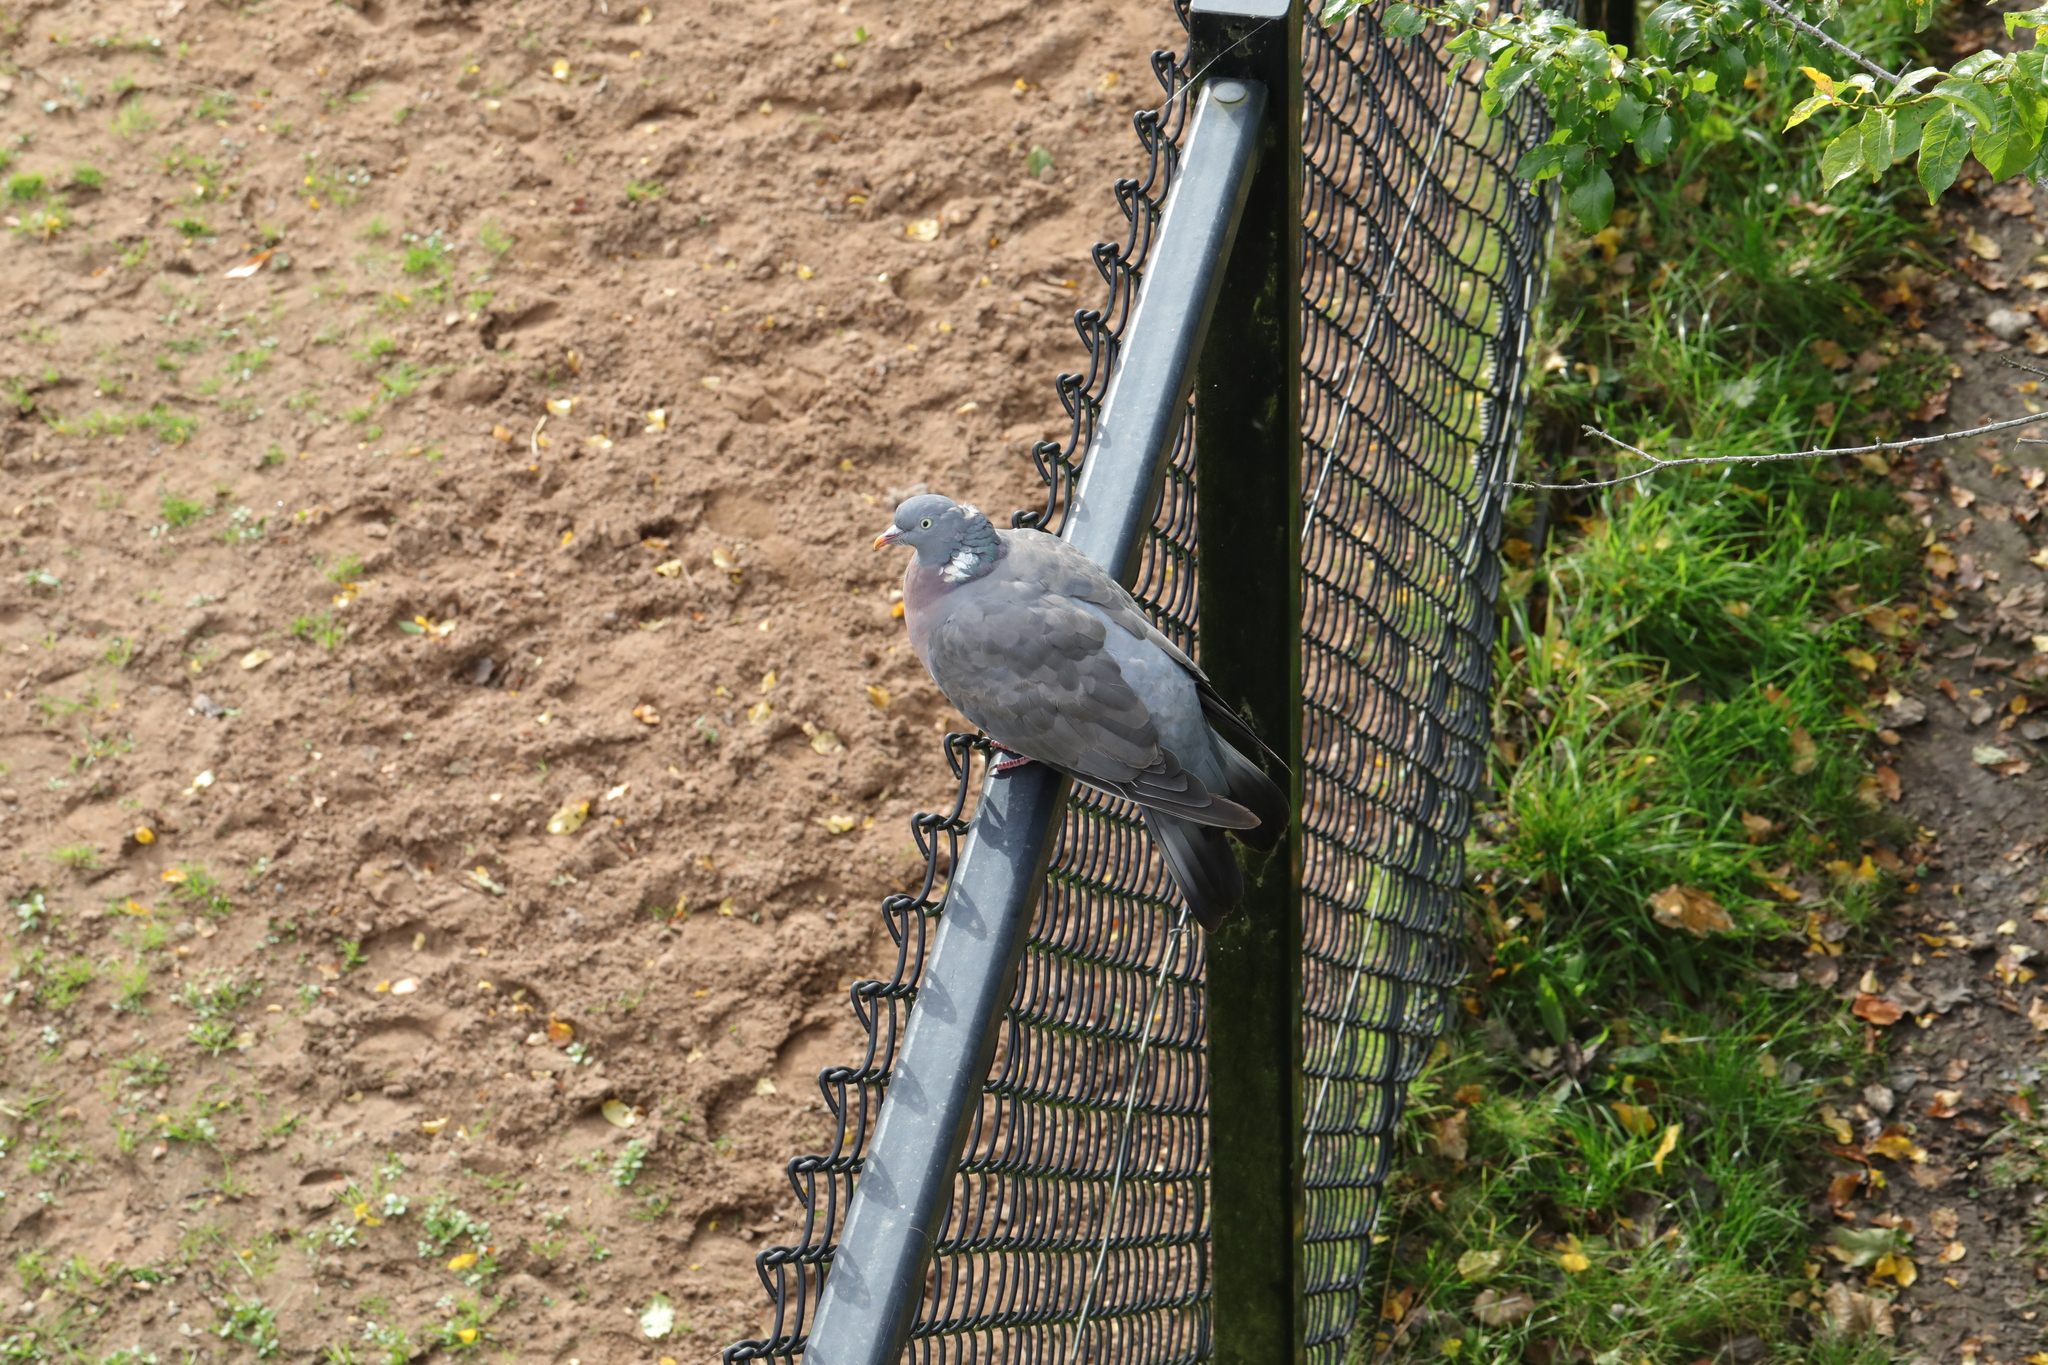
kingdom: Animalia
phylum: Chordata
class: Aves
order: Columbiformes
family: Columbidae
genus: Columba
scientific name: Columba palumbus
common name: Common wood pigeon
